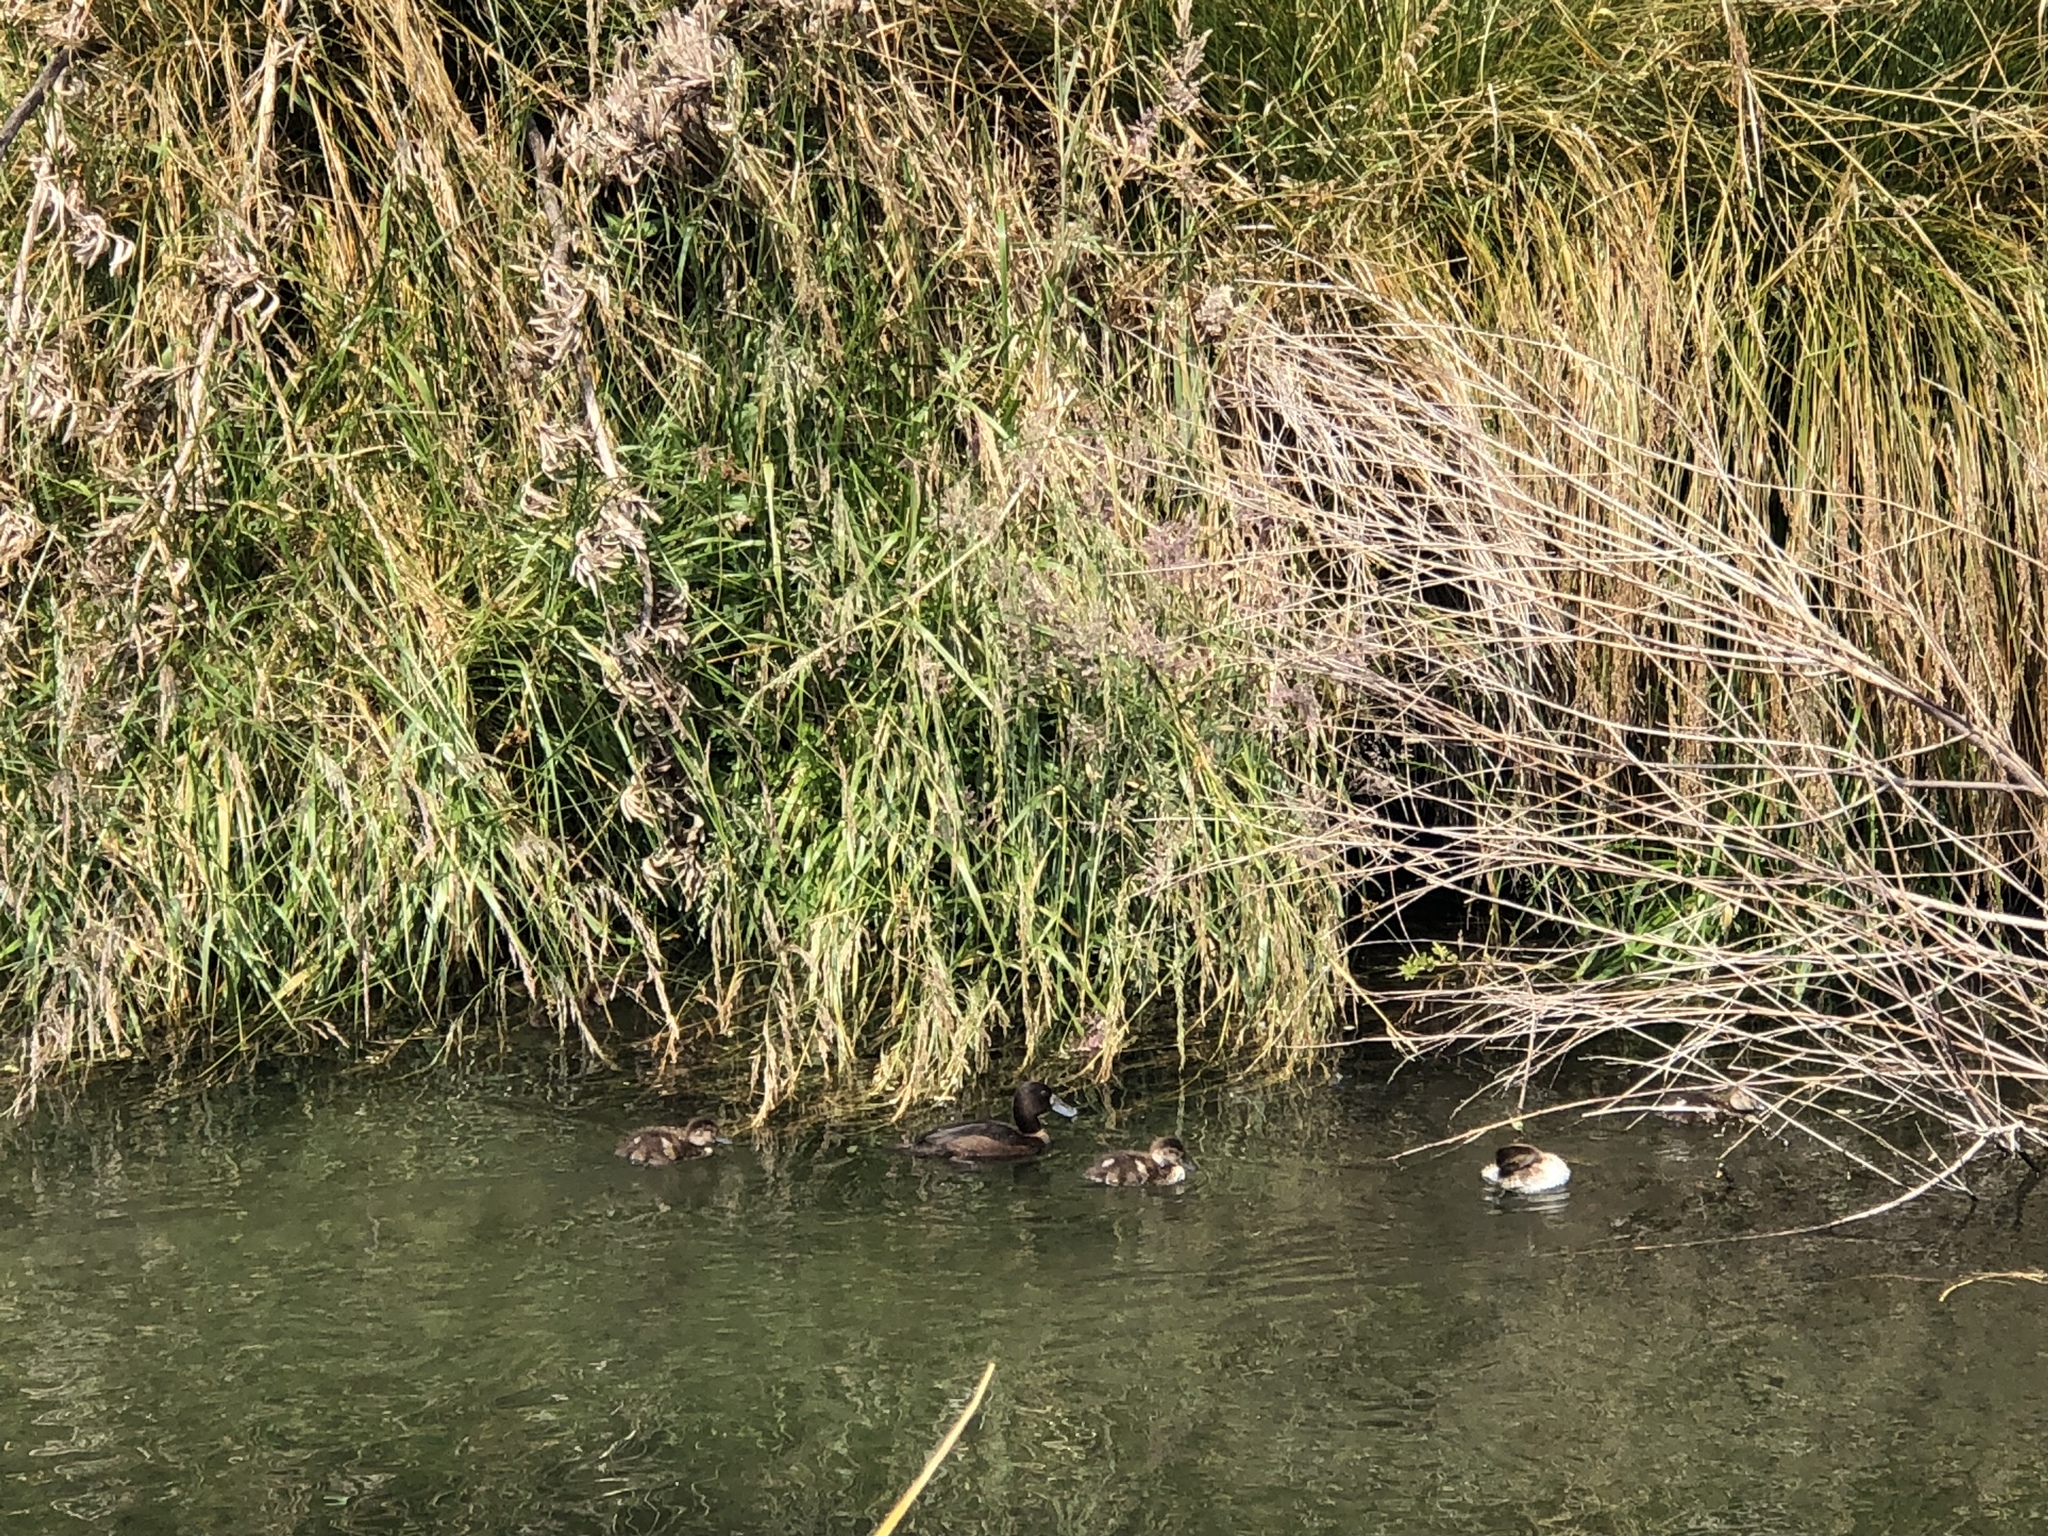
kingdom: Animalia
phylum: Chordata
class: Aves
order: Anseriformes
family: Anatidae
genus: Aythya
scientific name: Aythya novaeseelandiae
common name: New zealand scaup
